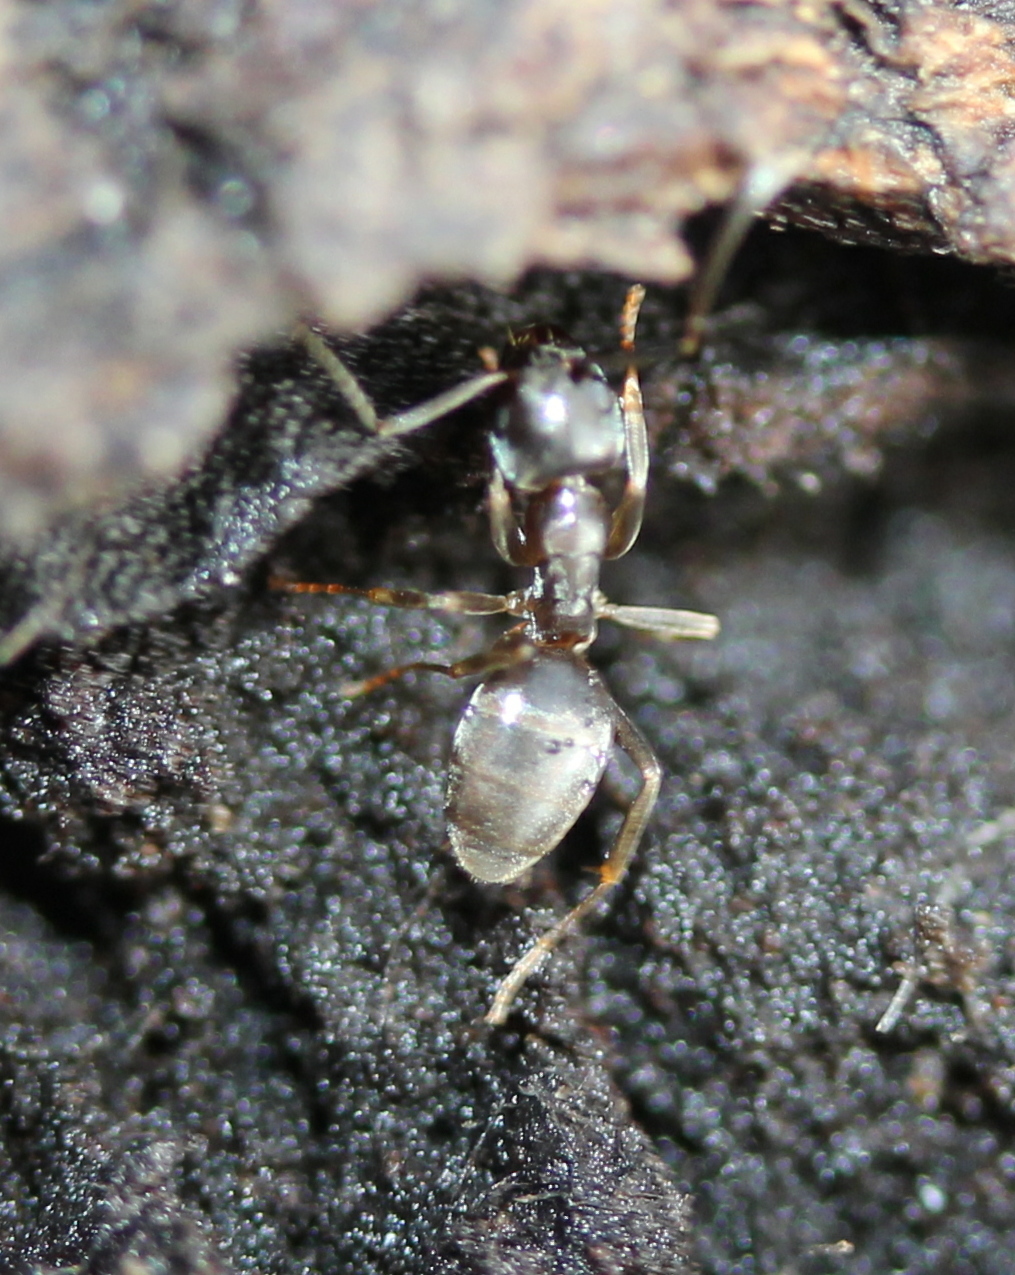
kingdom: Animalia
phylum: Arthropoda
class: Insecta
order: Hymenoptera
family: Formicidae
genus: Tapinoma
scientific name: Tapinoma sessile
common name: Odorous house ant
